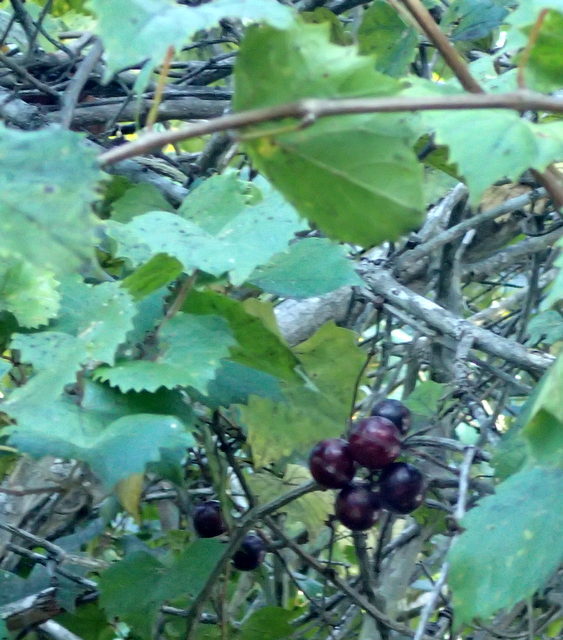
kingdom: Plantae
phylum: Tracheophyta
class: Magnoliopsida
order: Vitales
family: Vitaceae
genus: Vitis
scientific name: Vitis rotundifolia
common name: Muscadine grape
